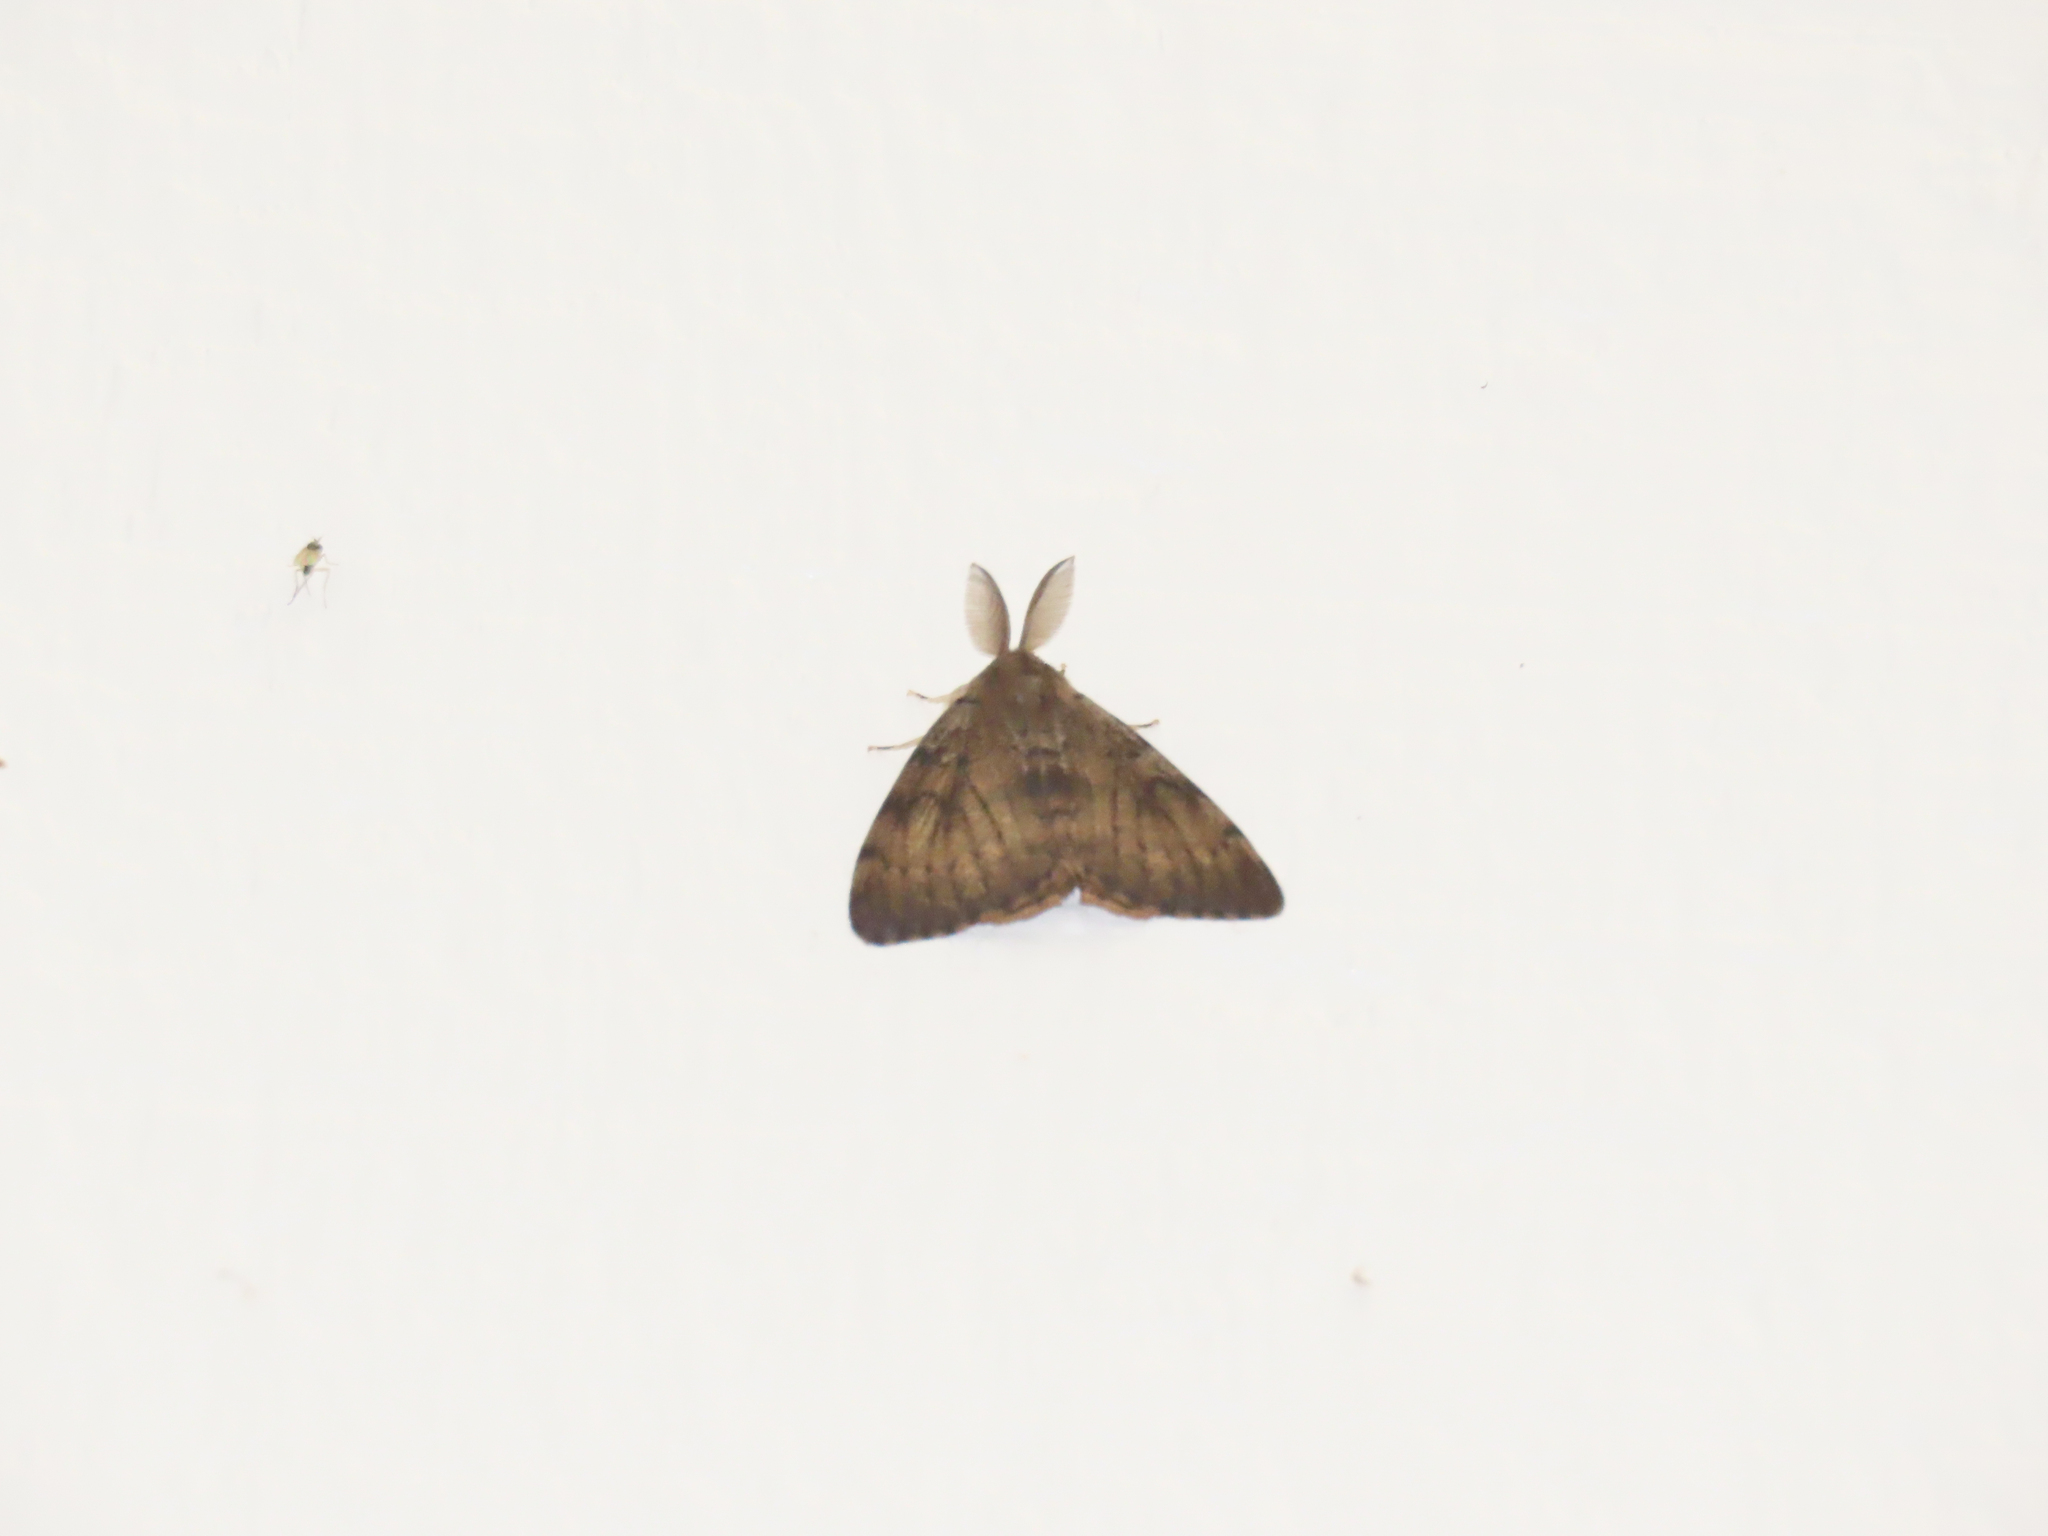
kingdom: Animalia
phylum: Arthropoda
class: Insecta
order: Lepidoptera
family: Erebidae
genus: Lymantria
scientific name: Lymantria dispar
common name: Gypsy moth
